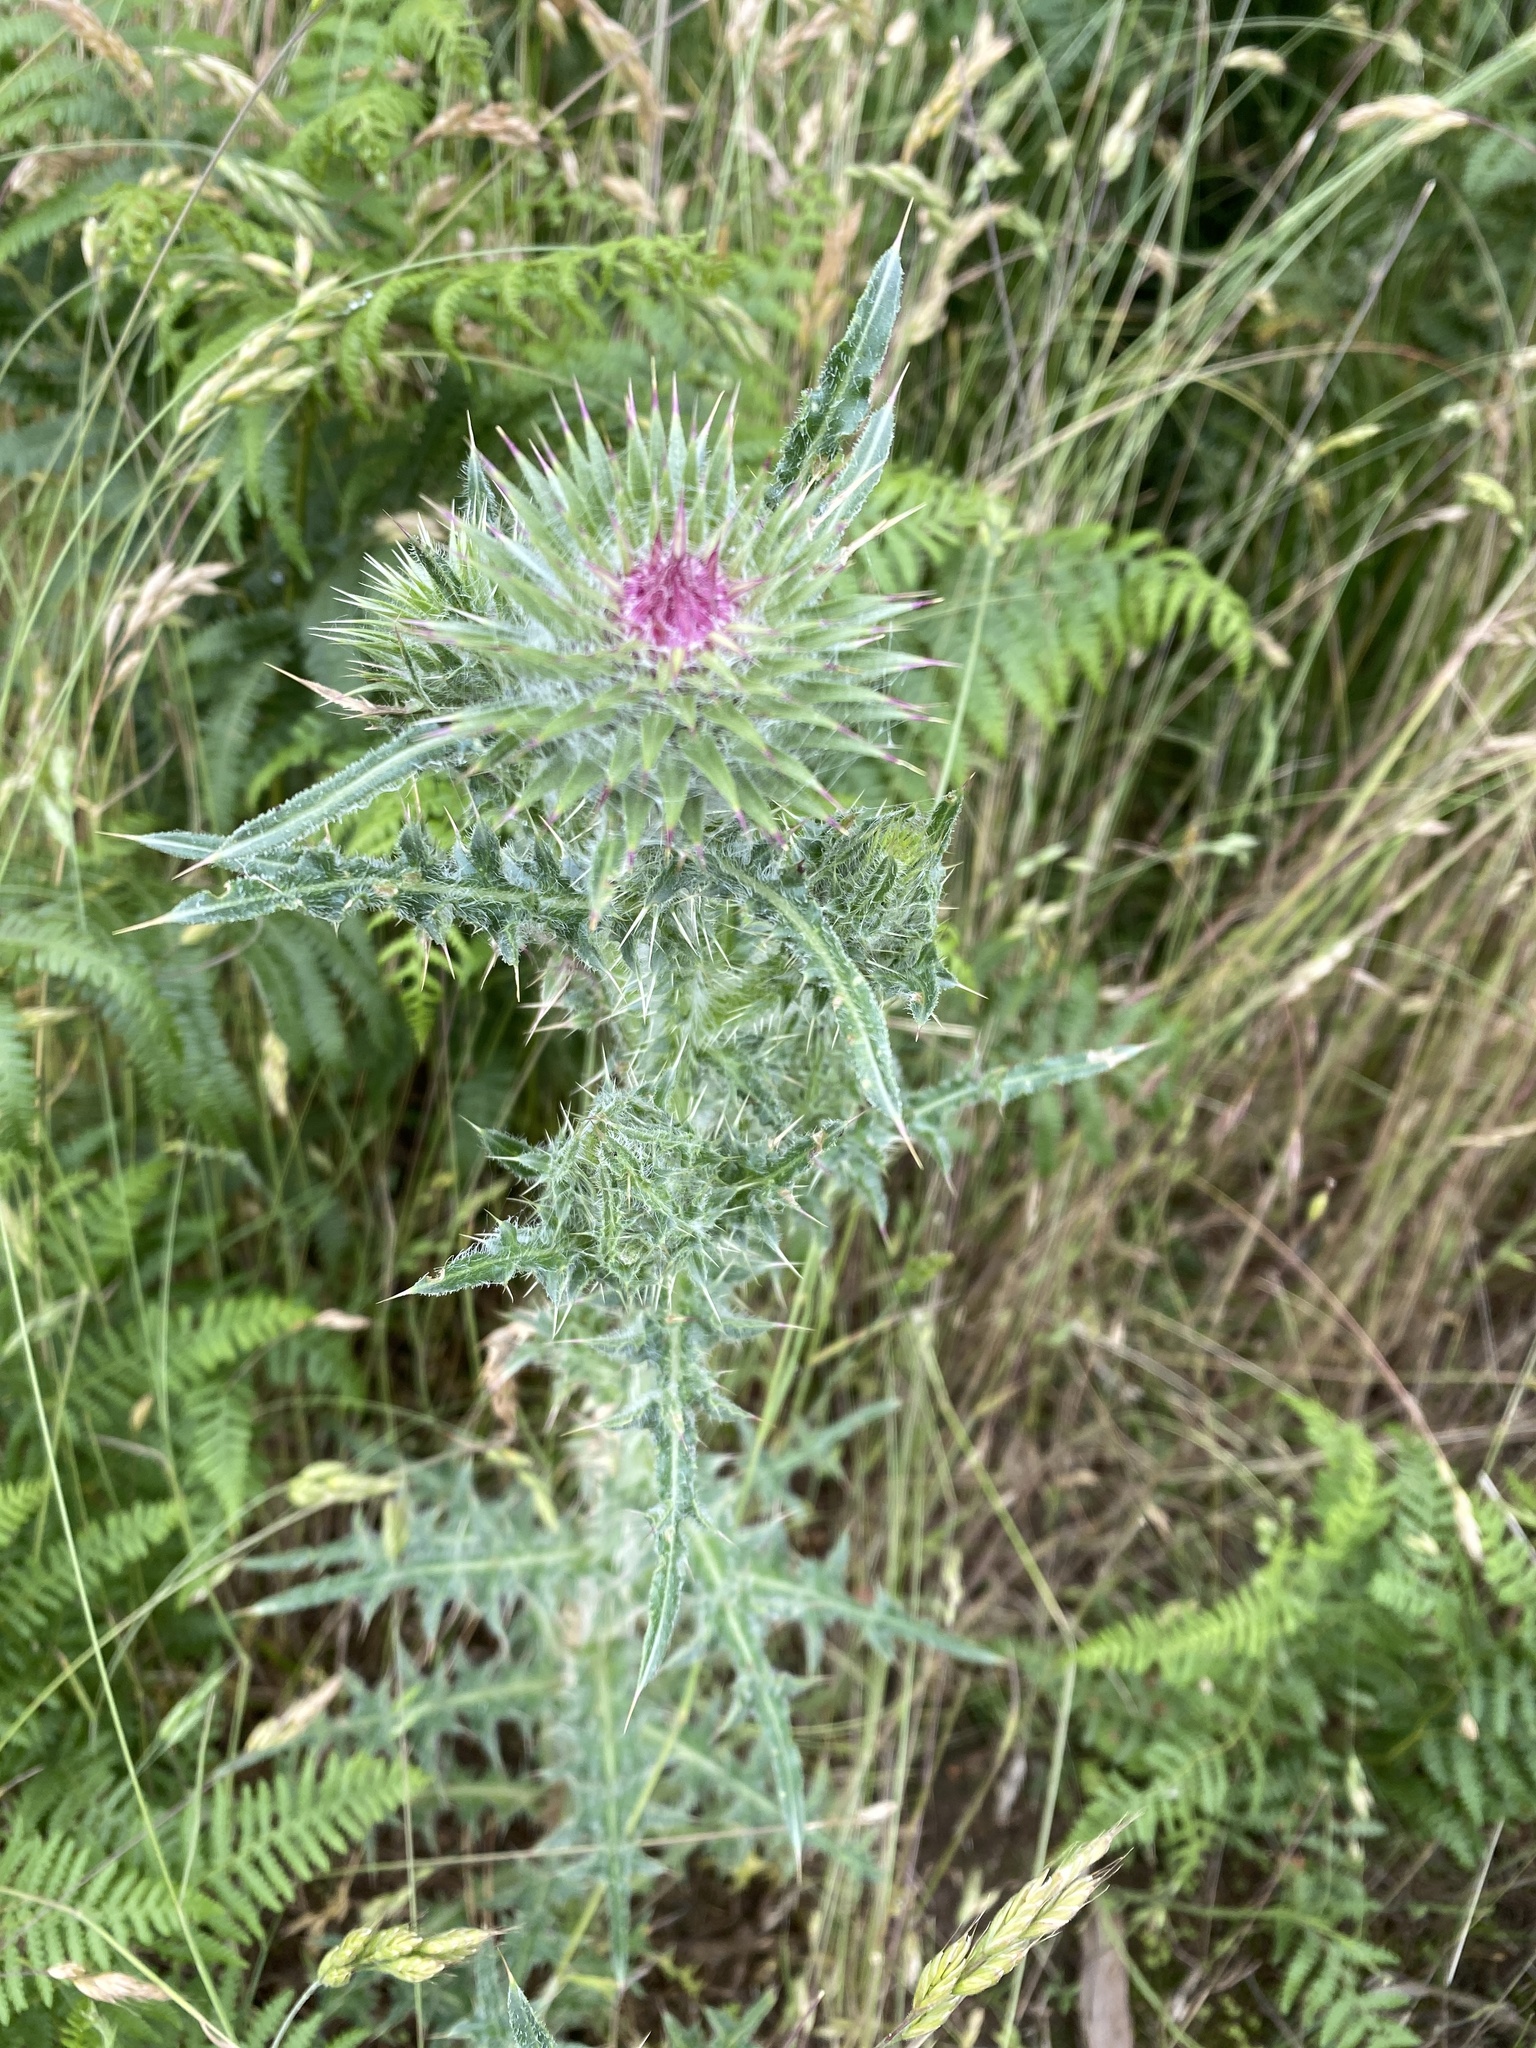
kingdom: Plantae
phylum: Tracheophyta
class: Magnoliopsida
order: Asterales
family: Asteraceae
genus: Carduus
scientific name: Carduus nutans
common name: Musk thistle
